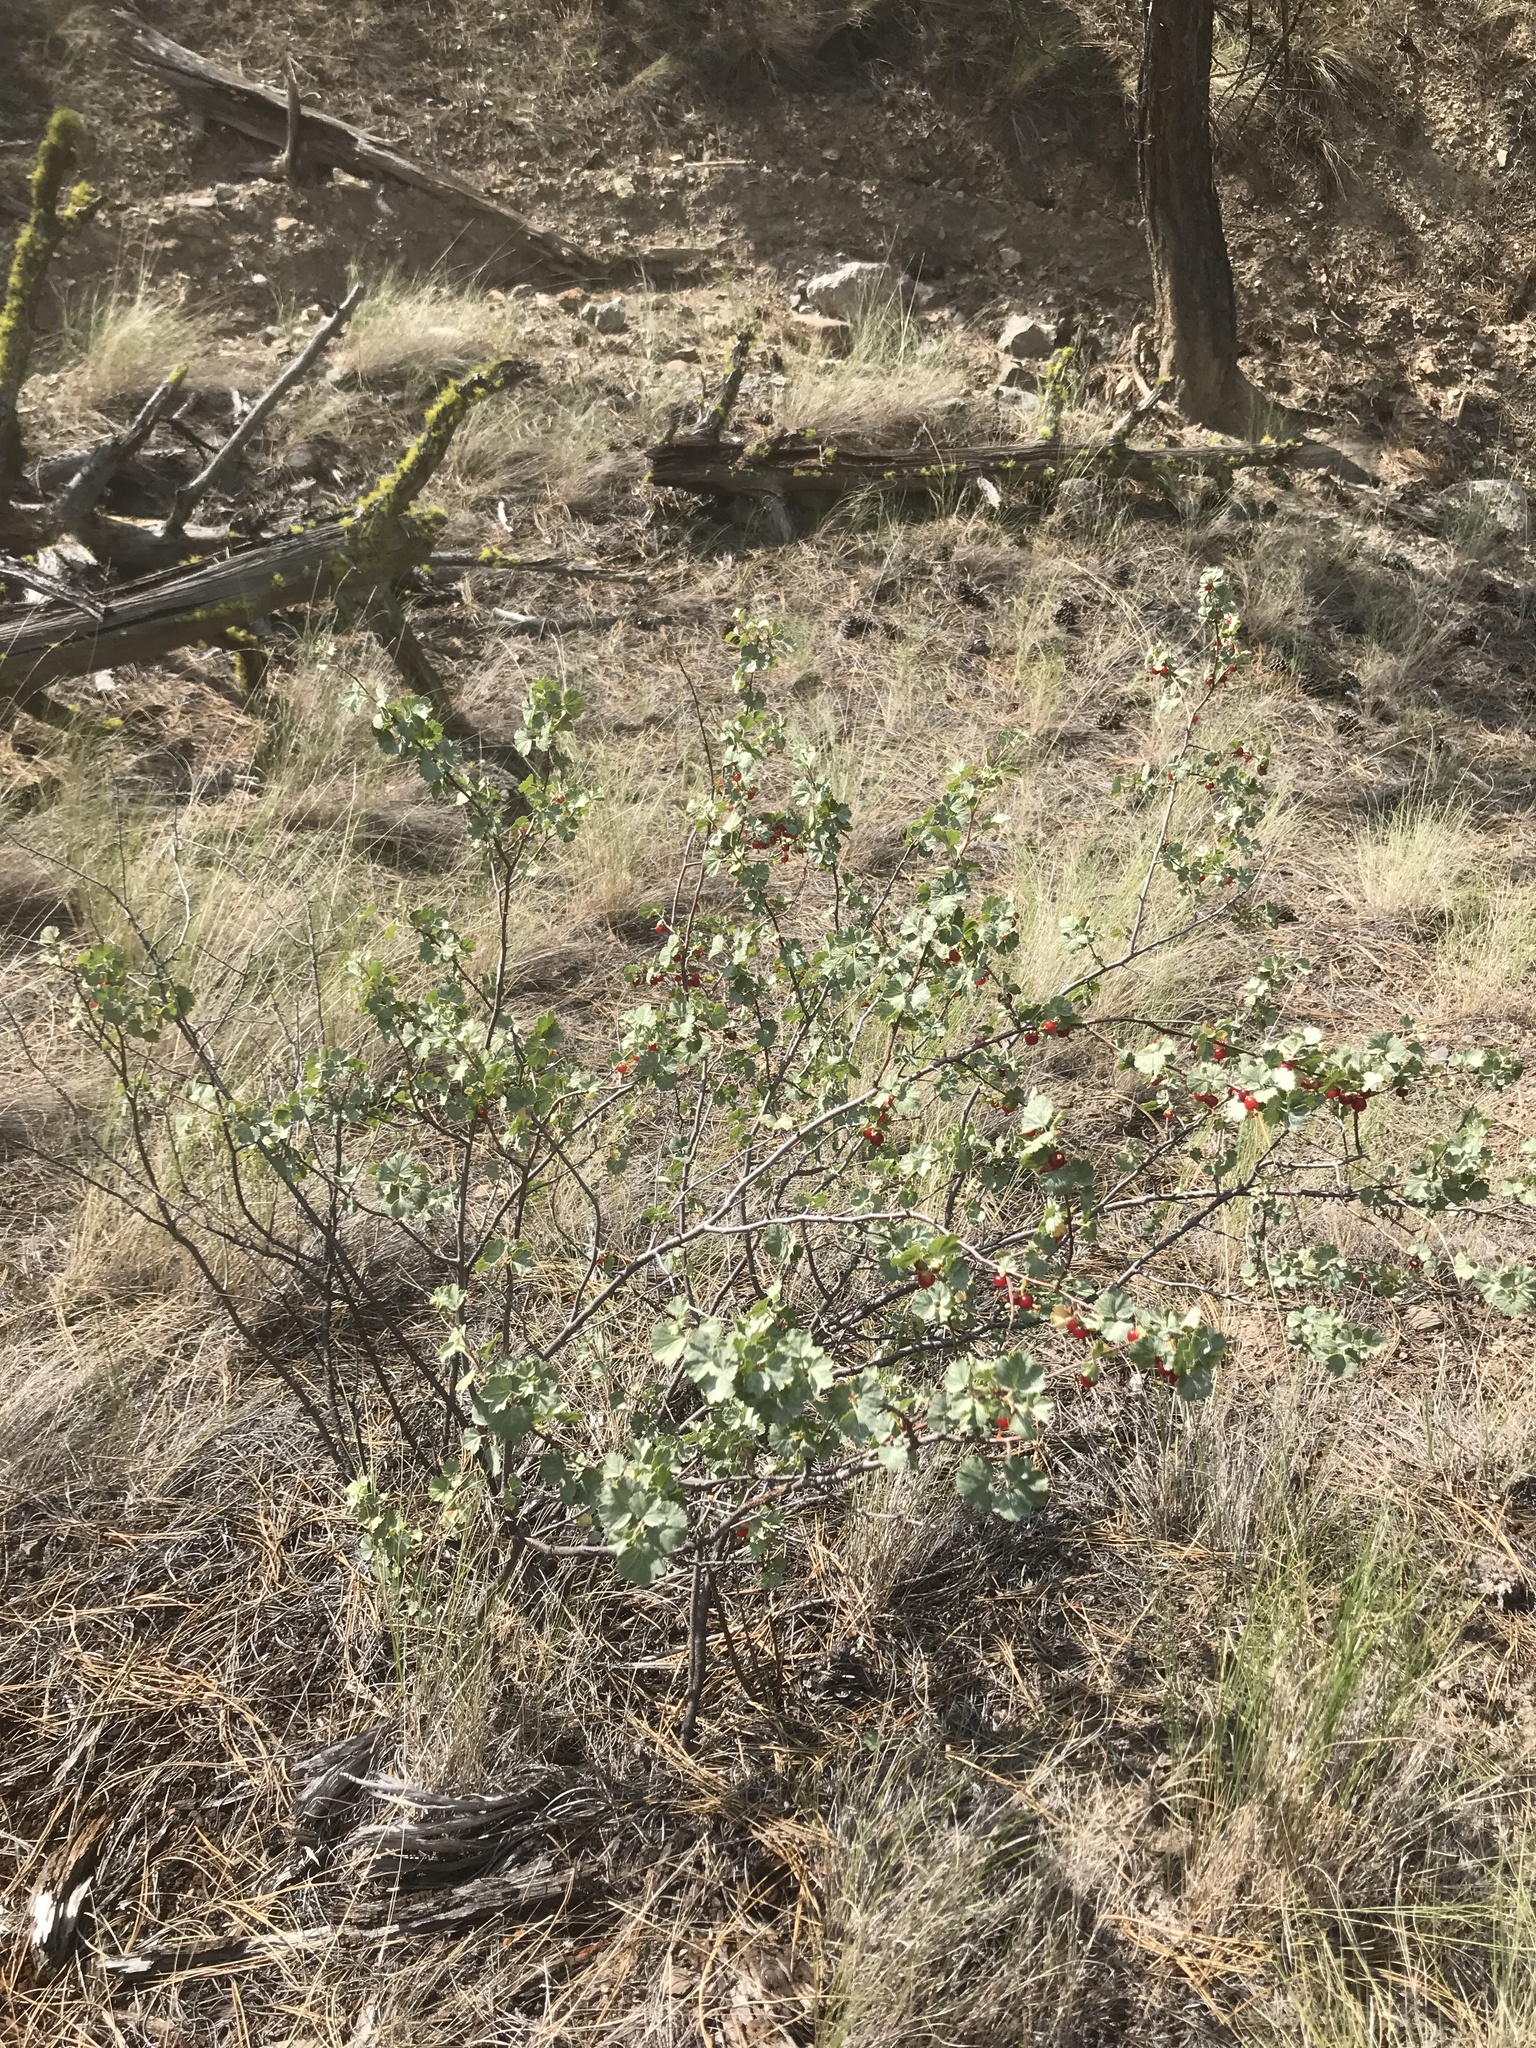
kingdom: Plantae
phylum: Tracheophyta
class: Magnoliopsida
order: Saxifragales
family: Grossulariaceae
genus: Ribes
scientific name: Ribes cereum
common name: Wax currant
